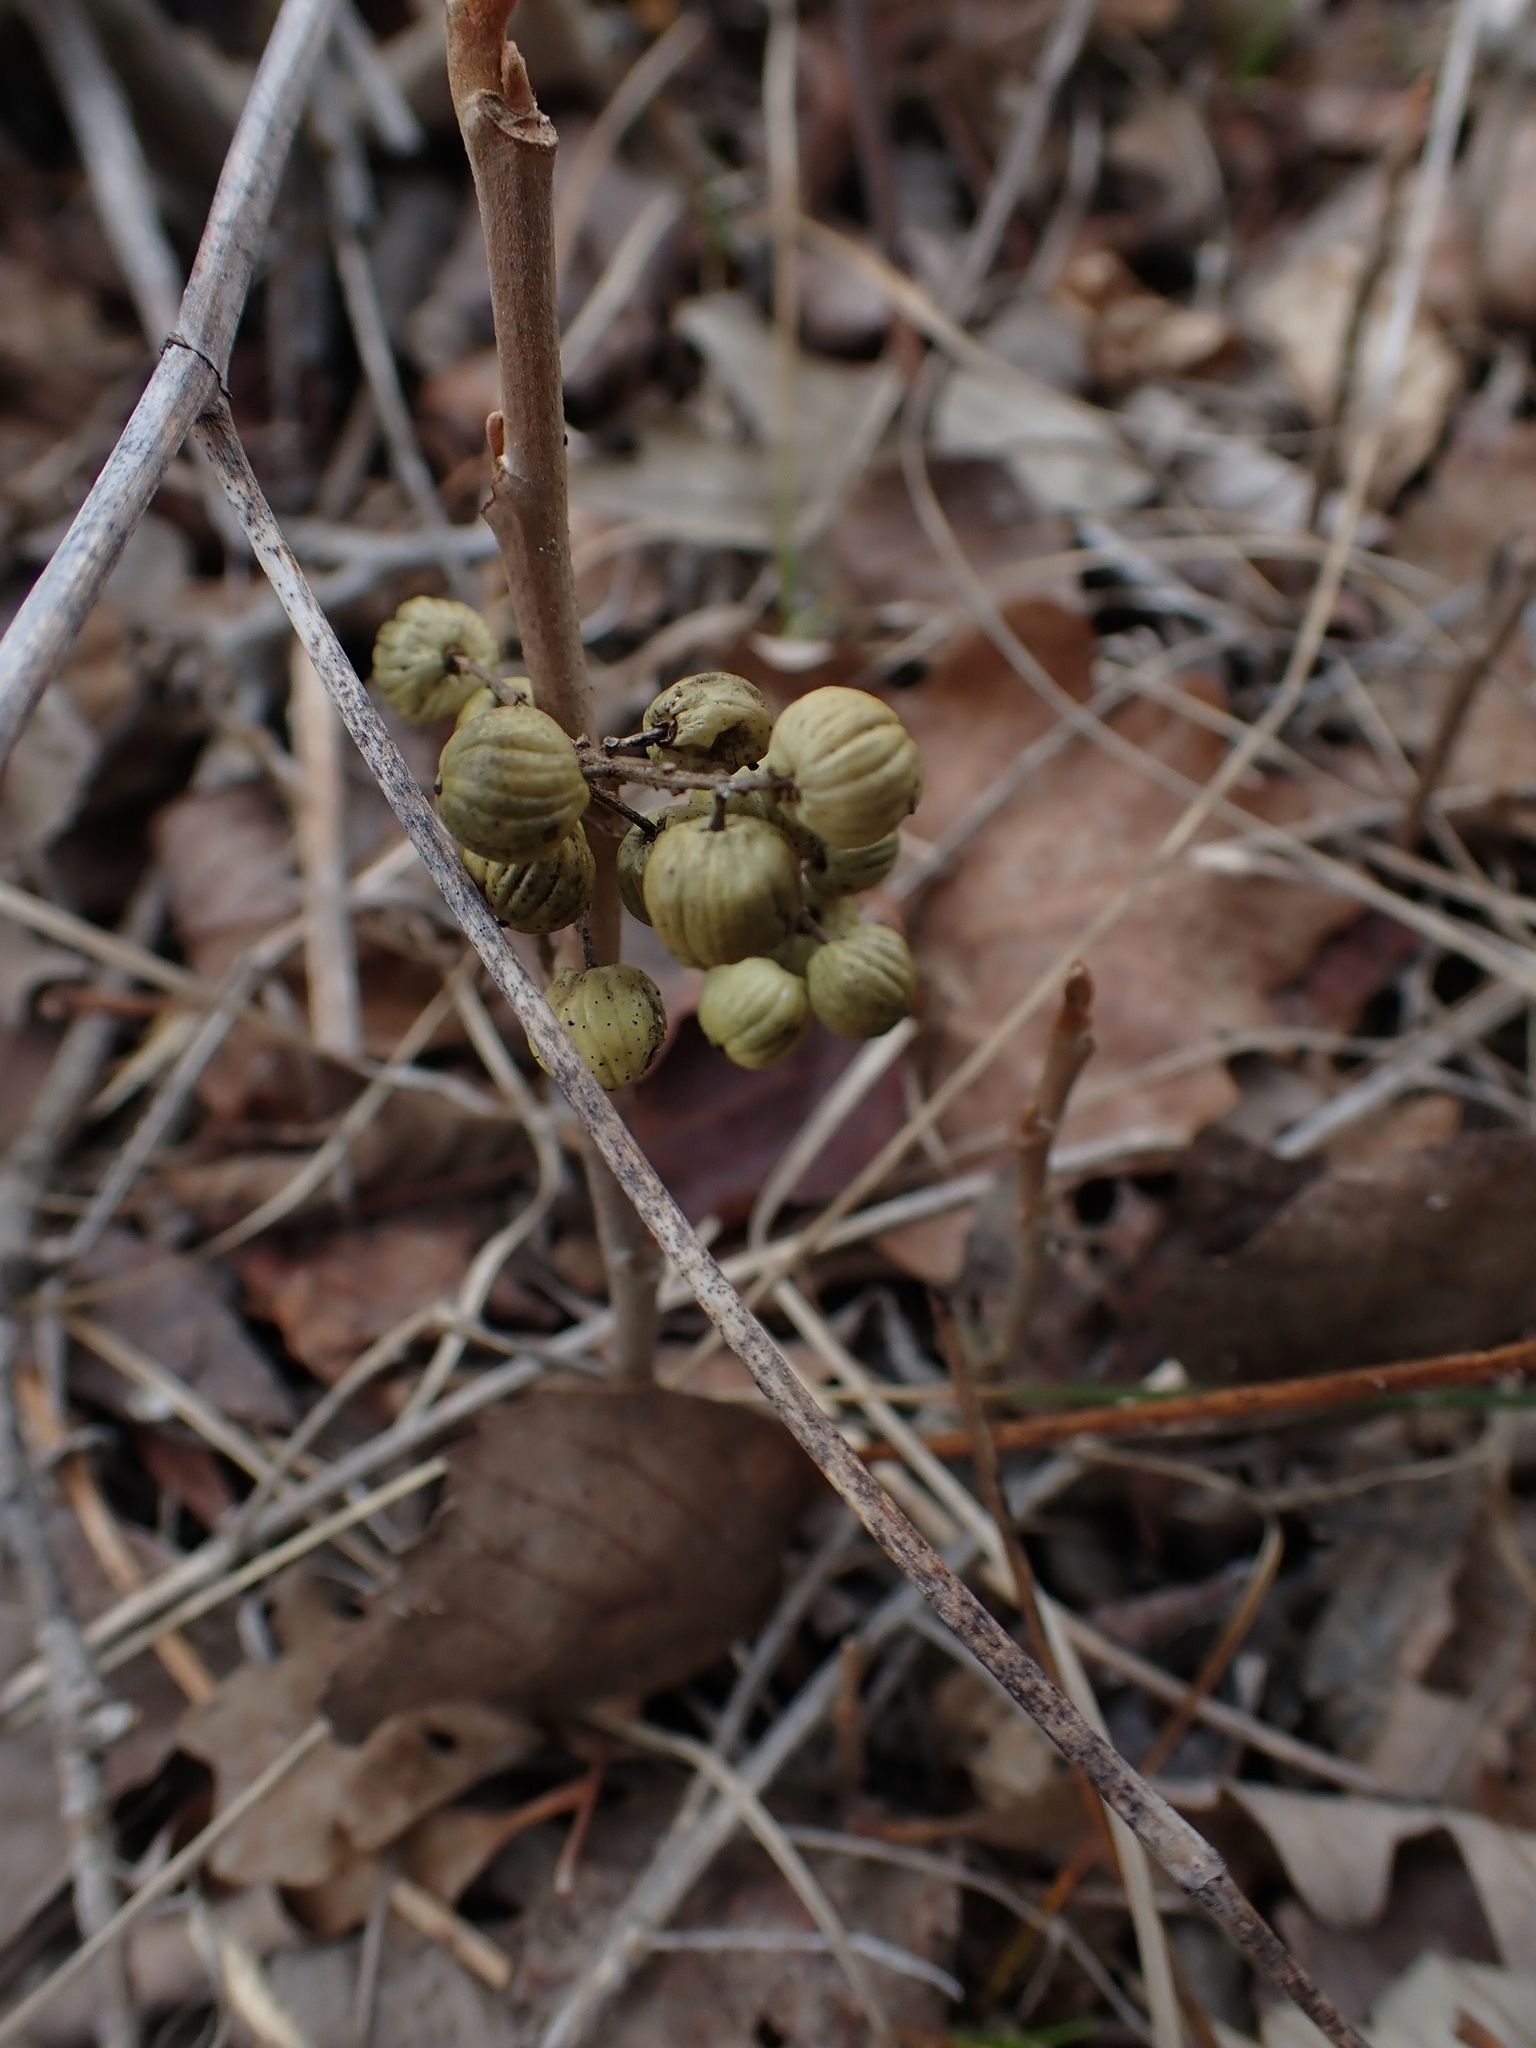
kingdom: Plantae
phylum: Tracheophyta
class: Magnoliopsida
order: Sapindales
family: Anacardiaceae
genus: Toxicodendron
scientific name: Toxicodendron rydbergii
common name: Rydberg's poison-ivy
